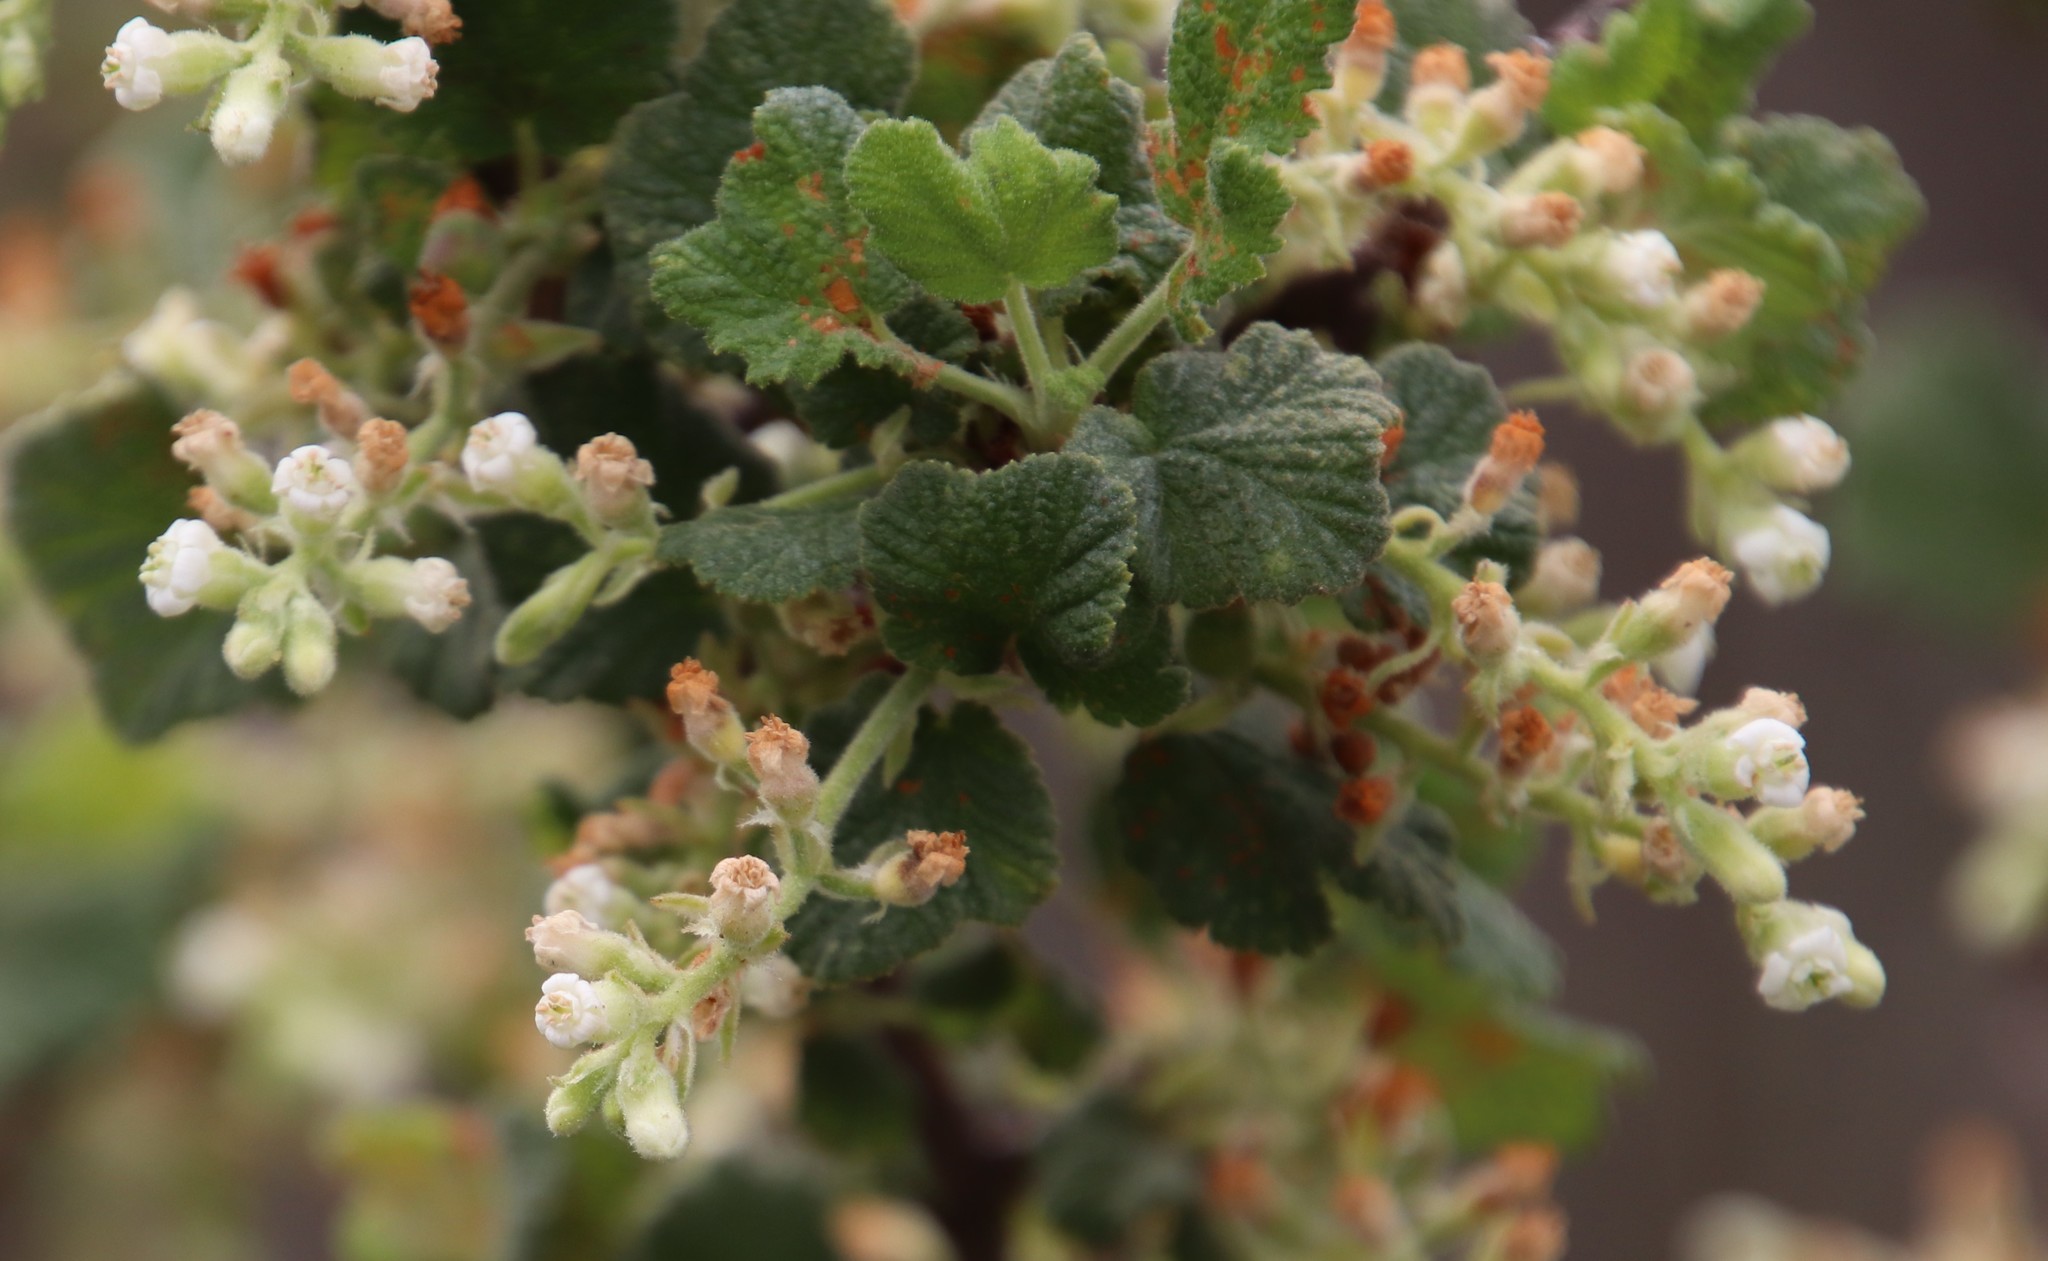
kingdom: Plantae
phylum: Tracheophyta
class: Magnoliopsida
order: Saxifragales
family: Grossulariaceae
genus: Ribes
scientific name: Ribes indecorum
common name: White-flower currant
